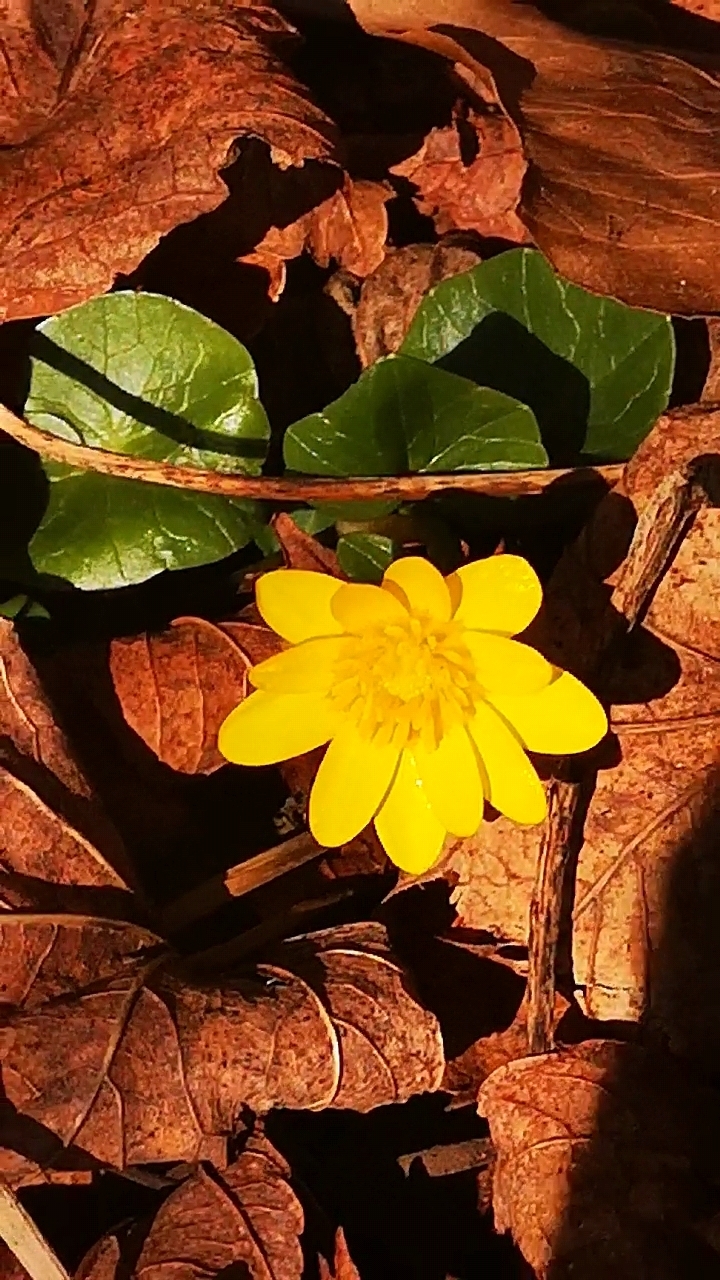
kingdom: Plantae
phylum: Tracheophyta
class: Magnoliopsida
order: Ranunculales
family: Ranunculaceae
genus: Ficaria
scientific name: Ficaria verna
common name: Lesser celandine
